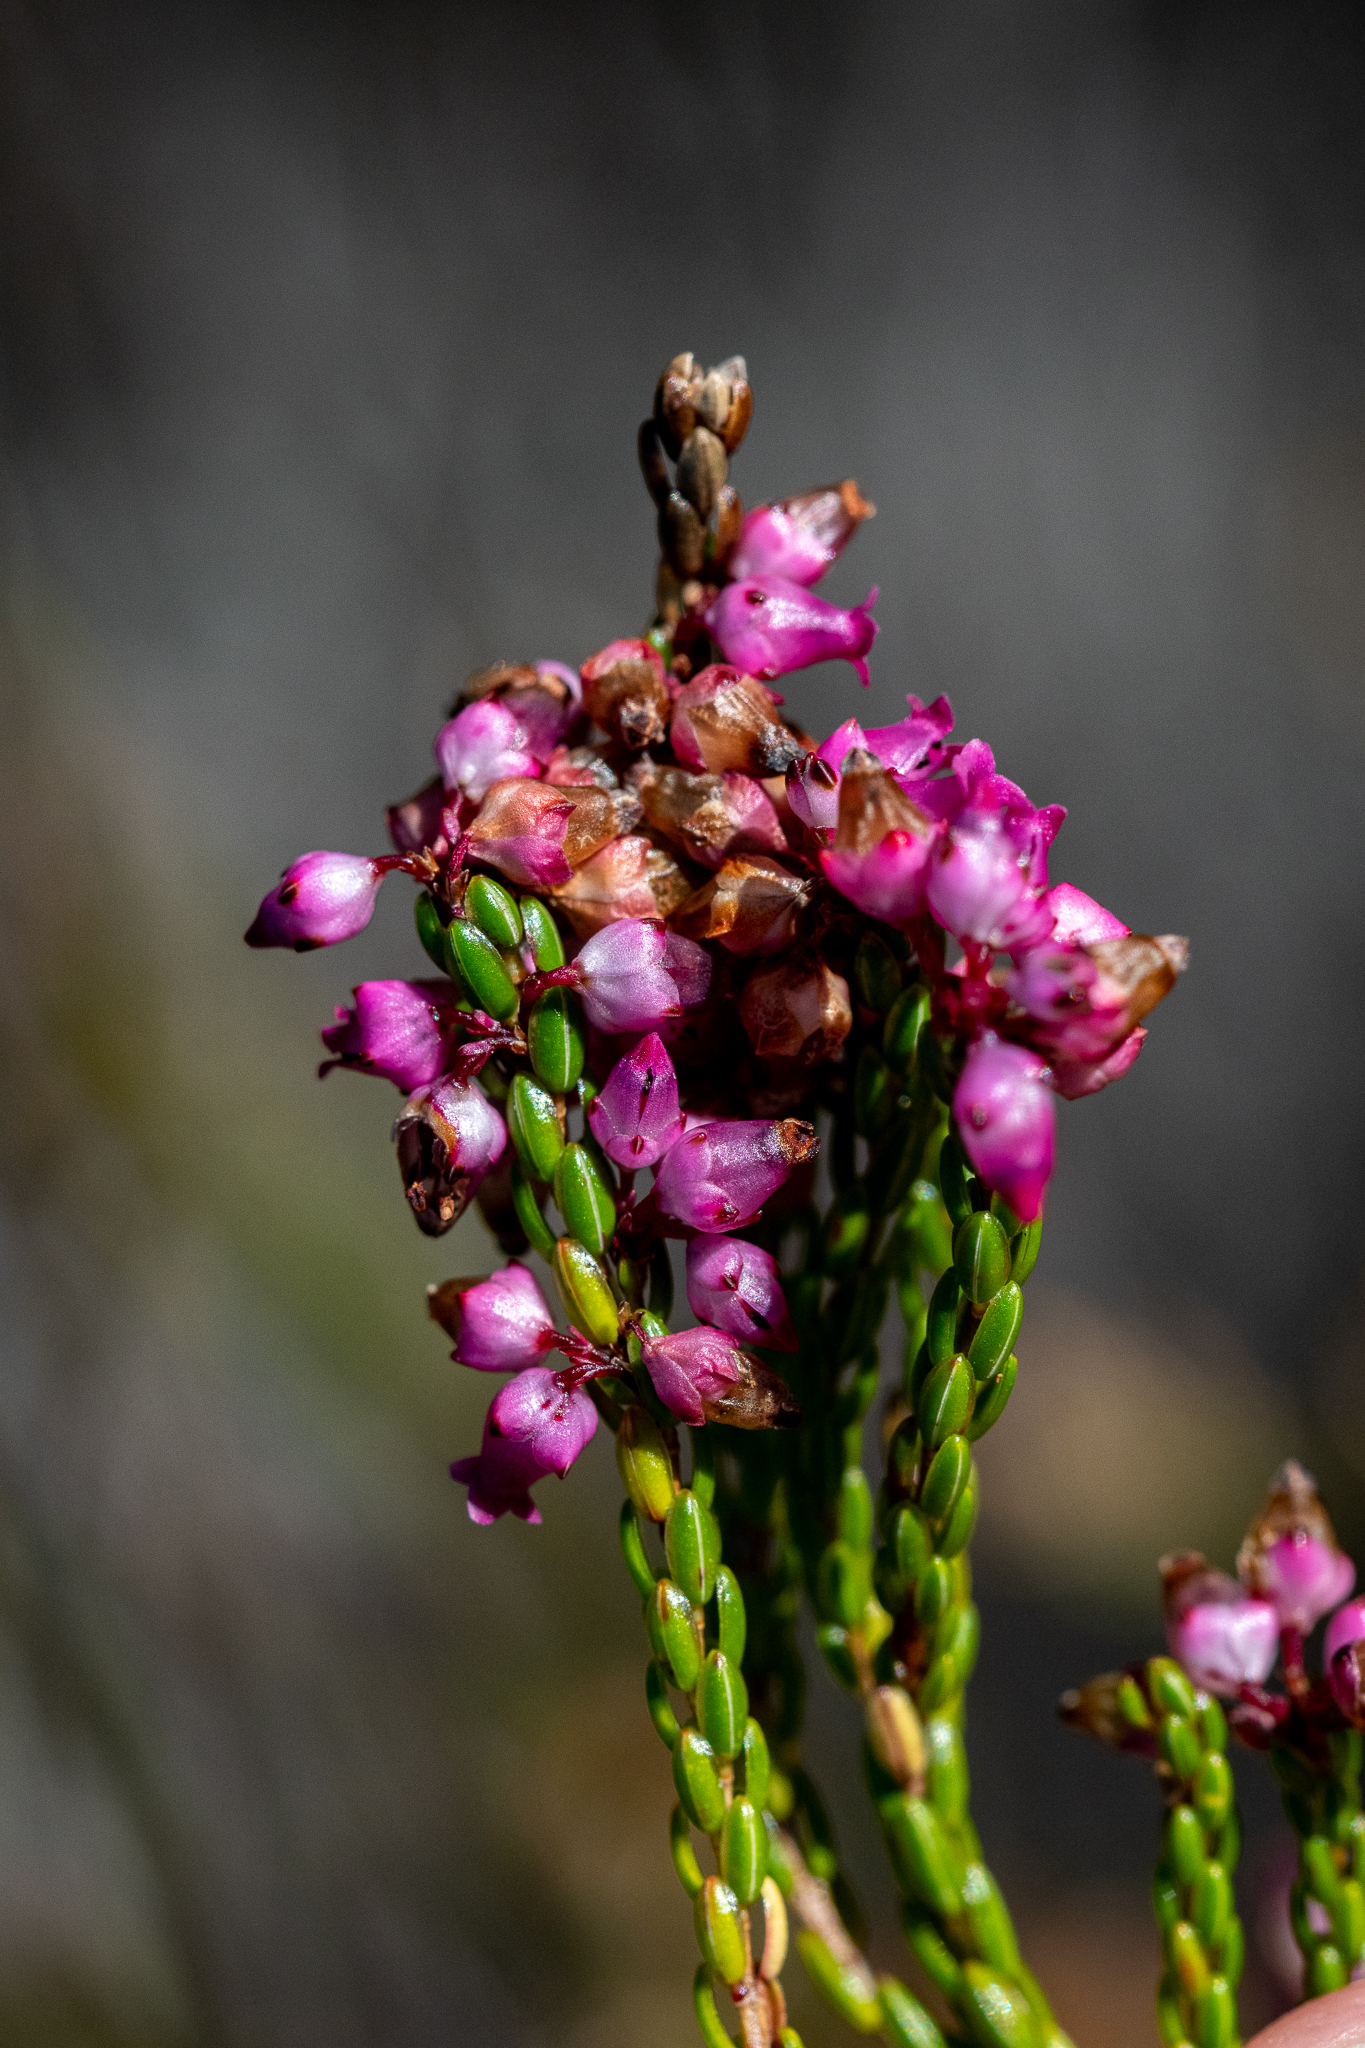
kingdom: Plantae
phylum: Tracheophyta
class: Magnoliopsida
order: Ericales
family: Ericaceae
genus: Erica
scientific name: Erica rhopalantha
